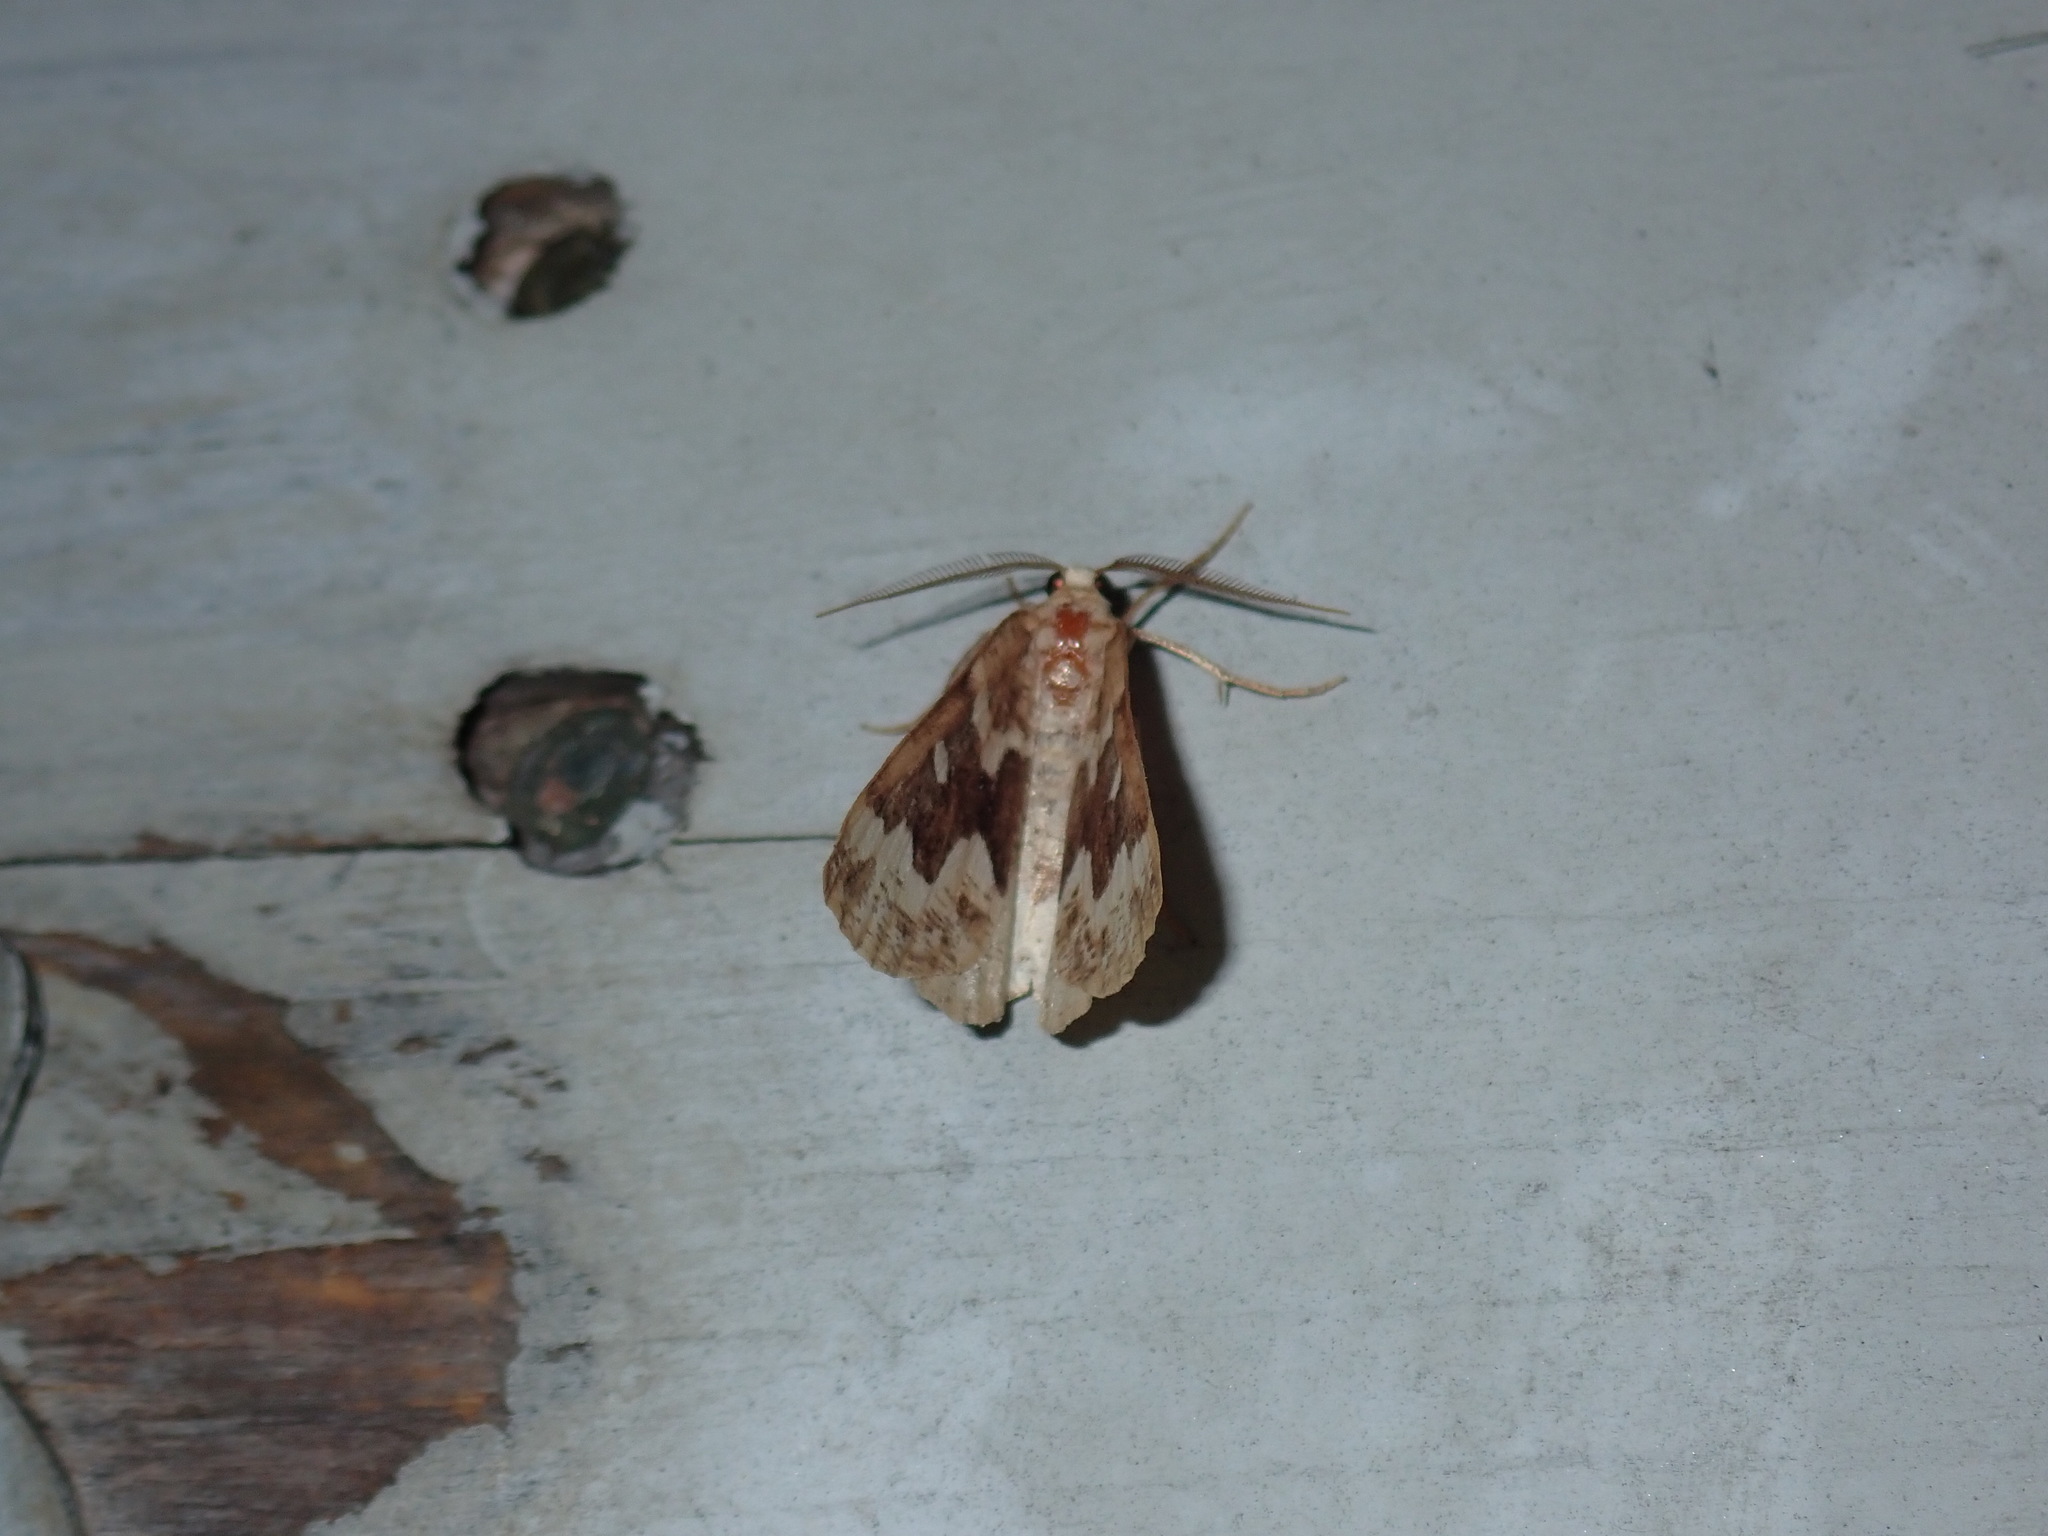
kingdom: Animalia
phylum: Arthropoda
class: Insecta
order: Lepidoptera
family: Geometridae
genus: Caripeta
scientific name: Caripeta divisata
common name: Gray spruce looper
